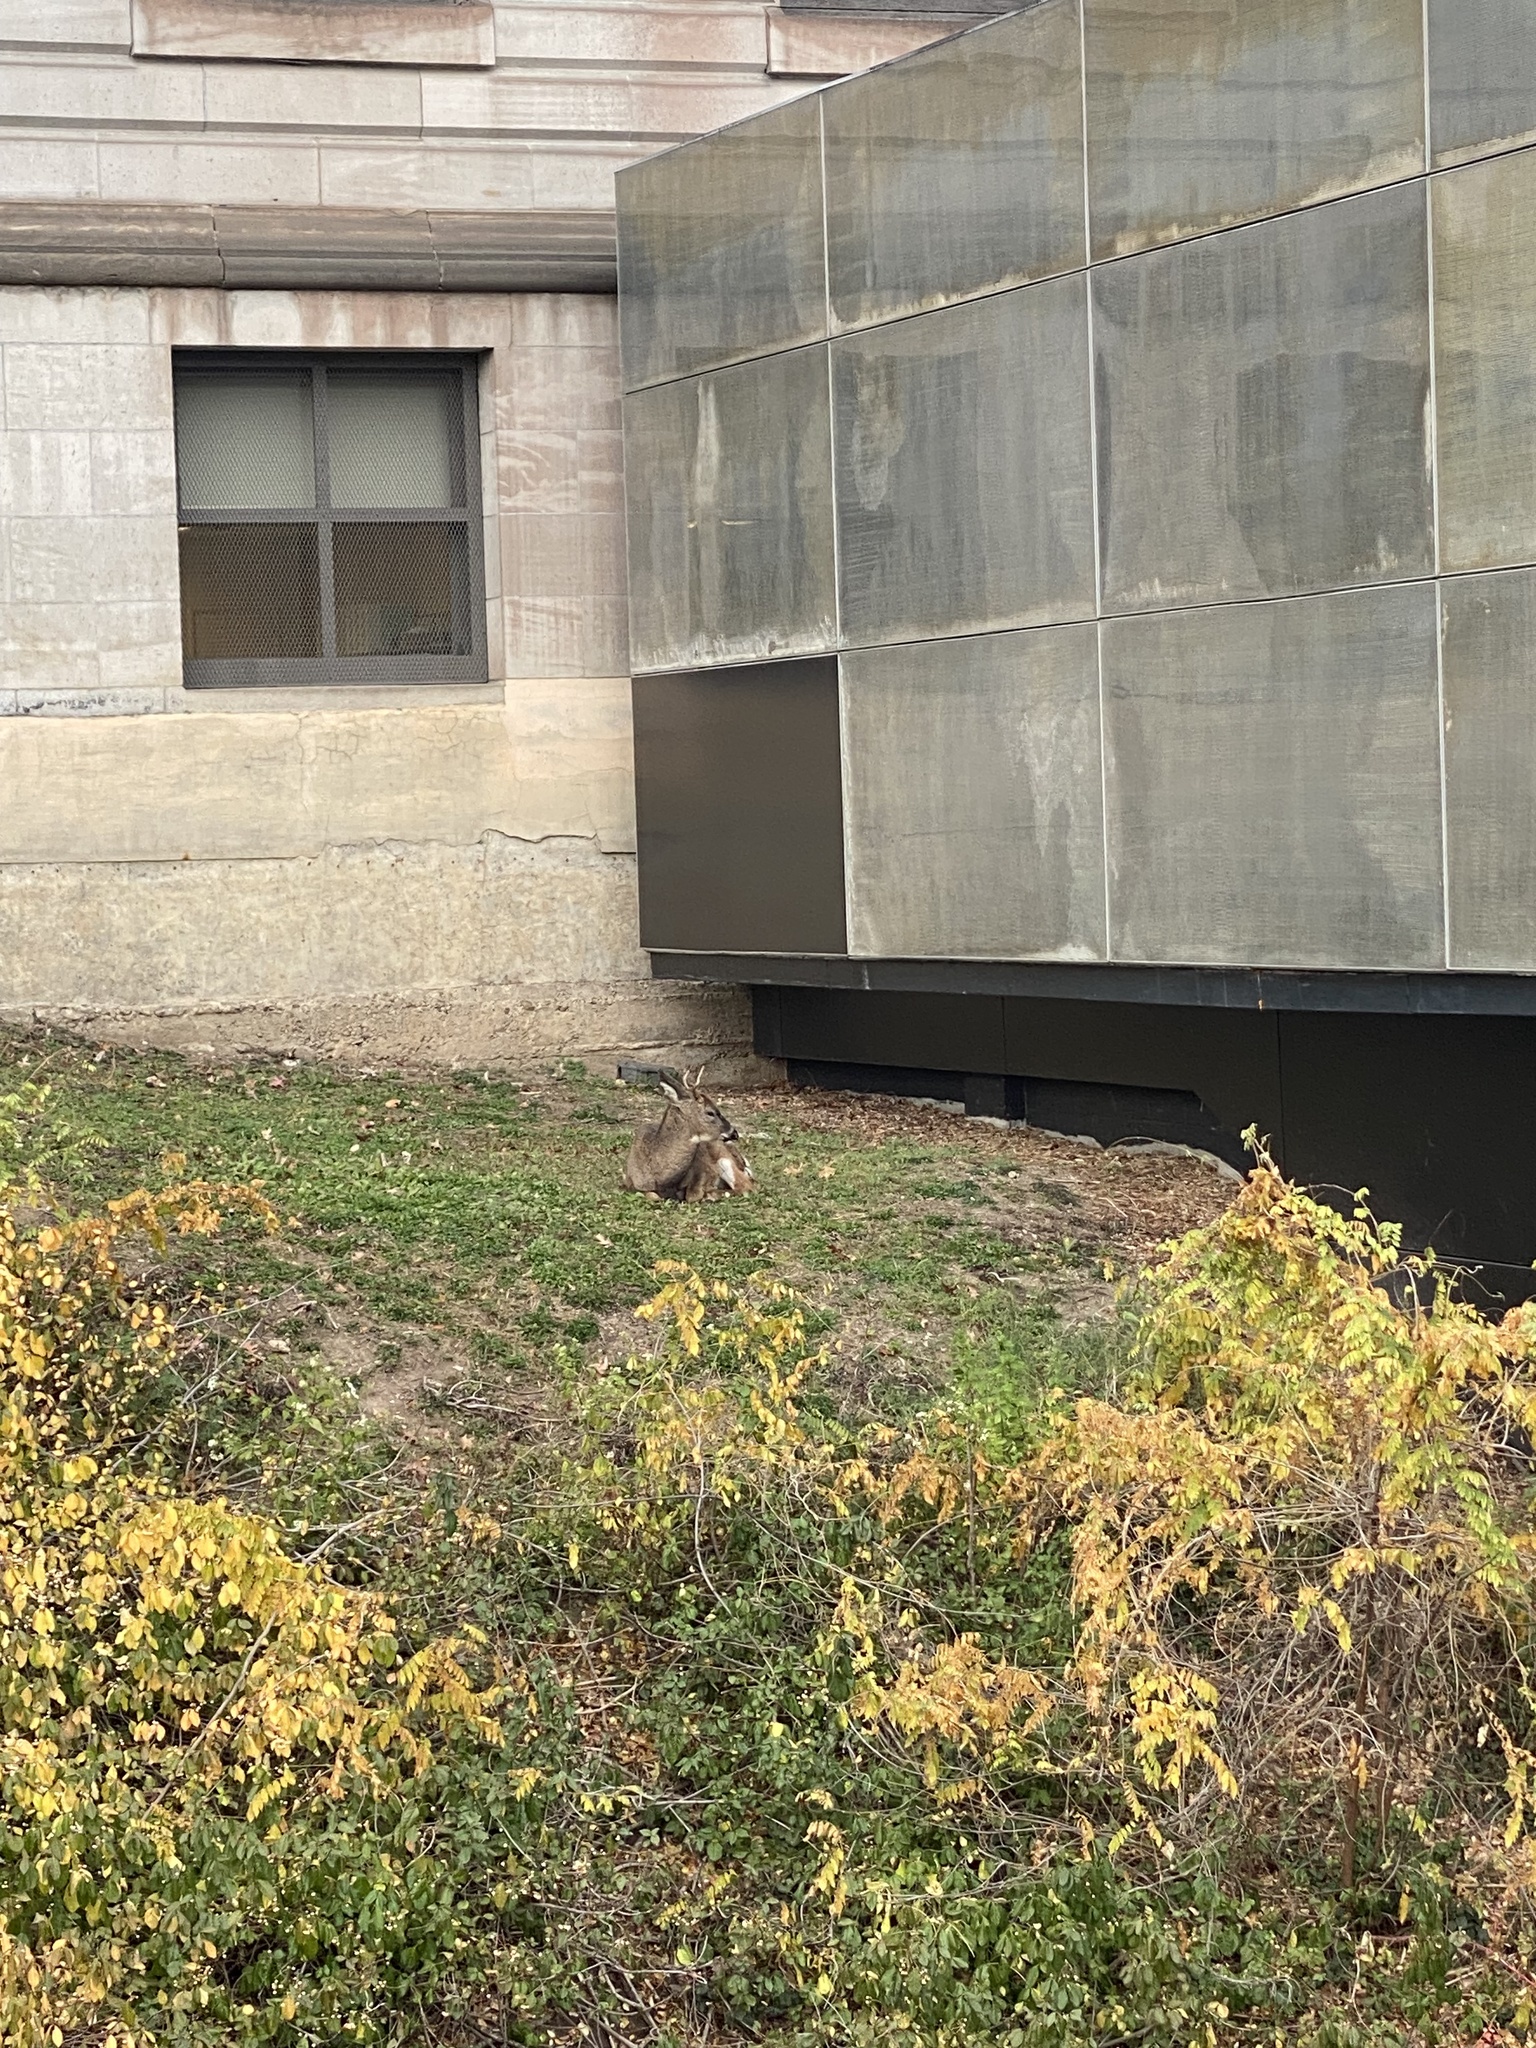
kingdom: Animalia
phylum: Chordata
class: Mammalia
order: Artiodactyla
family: Cervidae
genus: Odocoileus
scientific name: Odocoileus virginianus
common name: White-tailed deer
